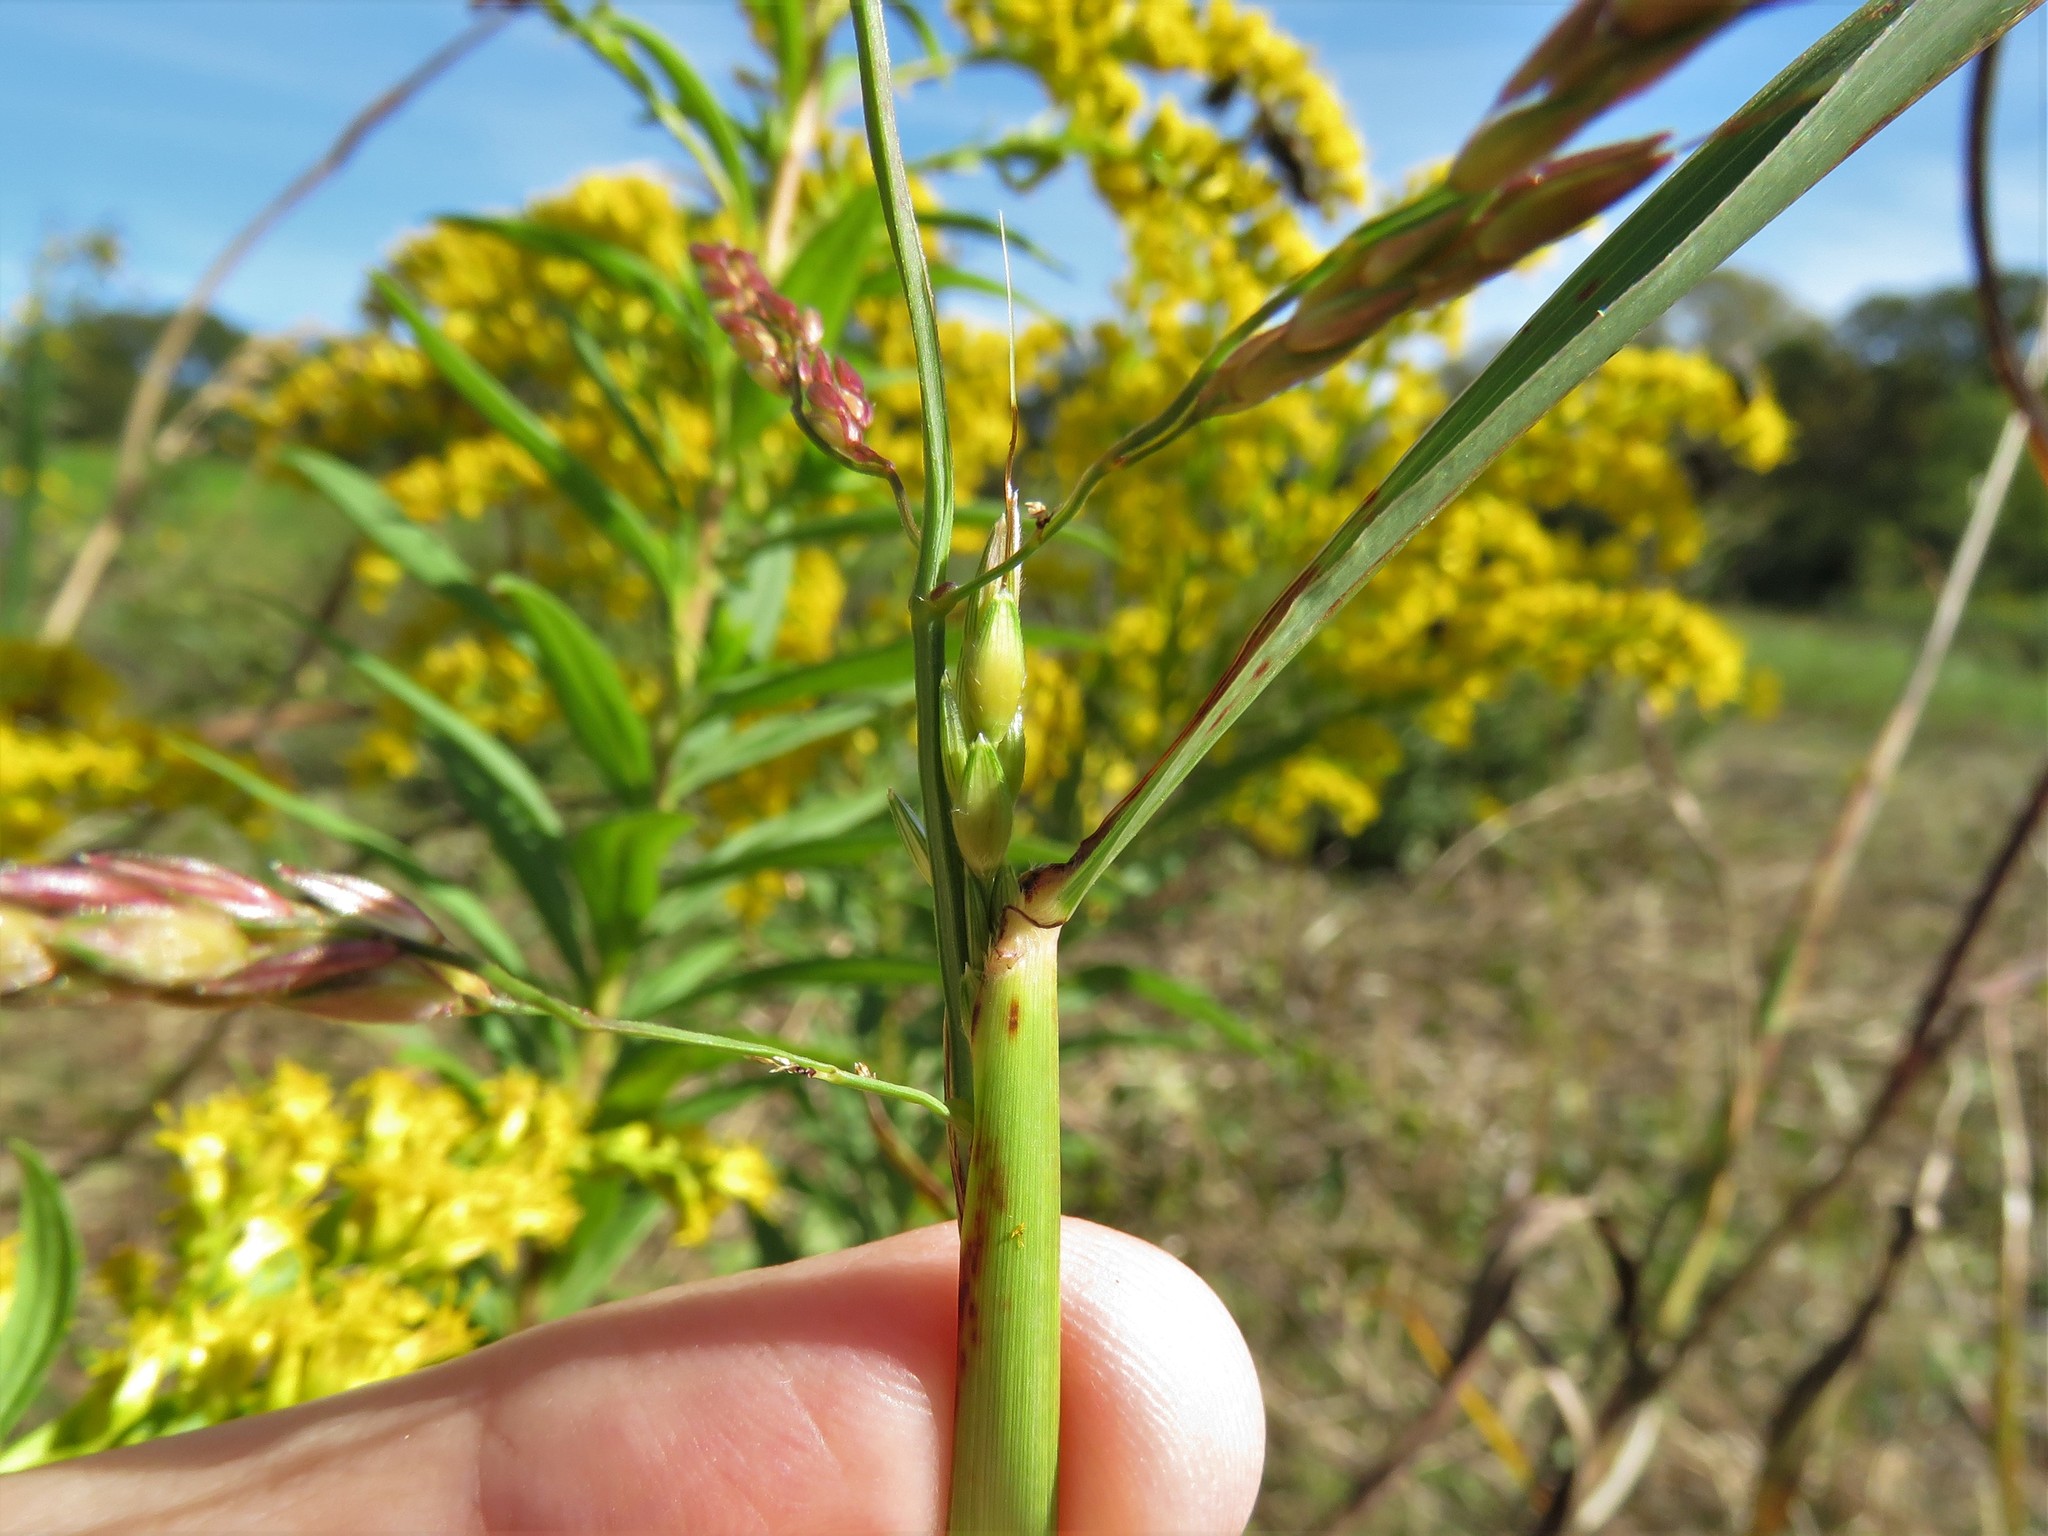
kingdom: Plantae
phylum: Tracheophyta
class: Liliopsida
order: Poales
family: Poaceae
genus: Sorghum
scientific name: Sorghum halepense
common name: Johnson-grass
